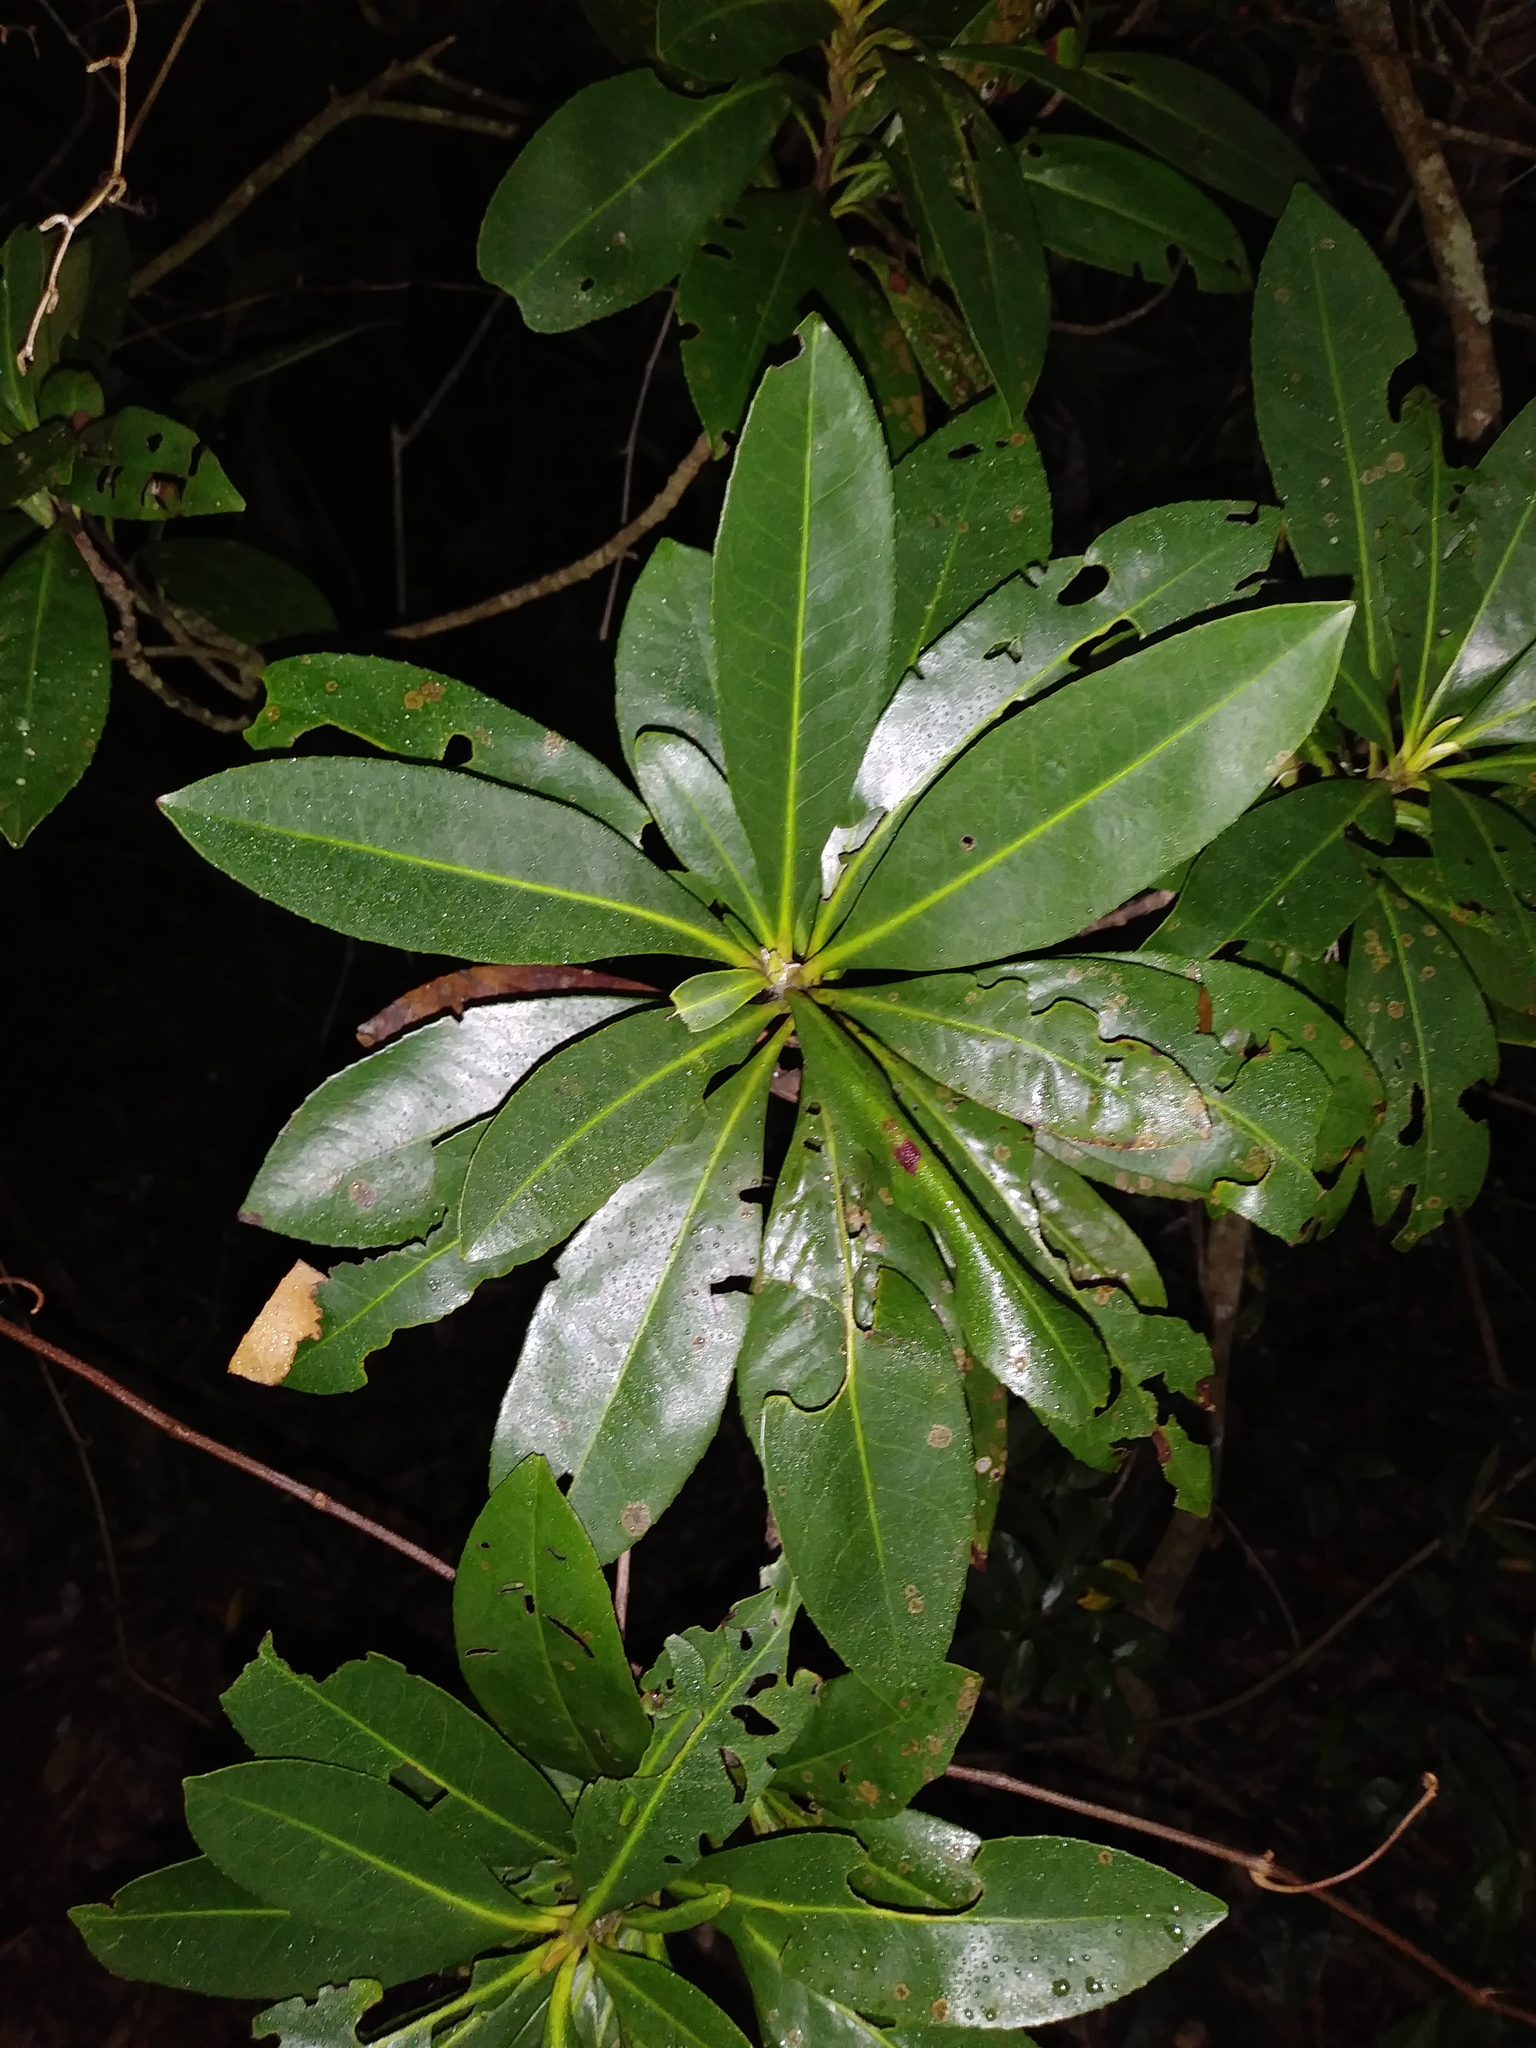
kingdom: Plantae
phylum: Tracheophyta
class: Magnoliopsida
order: Aquifoliales
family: Aquifoliaceae
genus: Ilex
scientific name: Ilex cassine
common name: Dahoon
